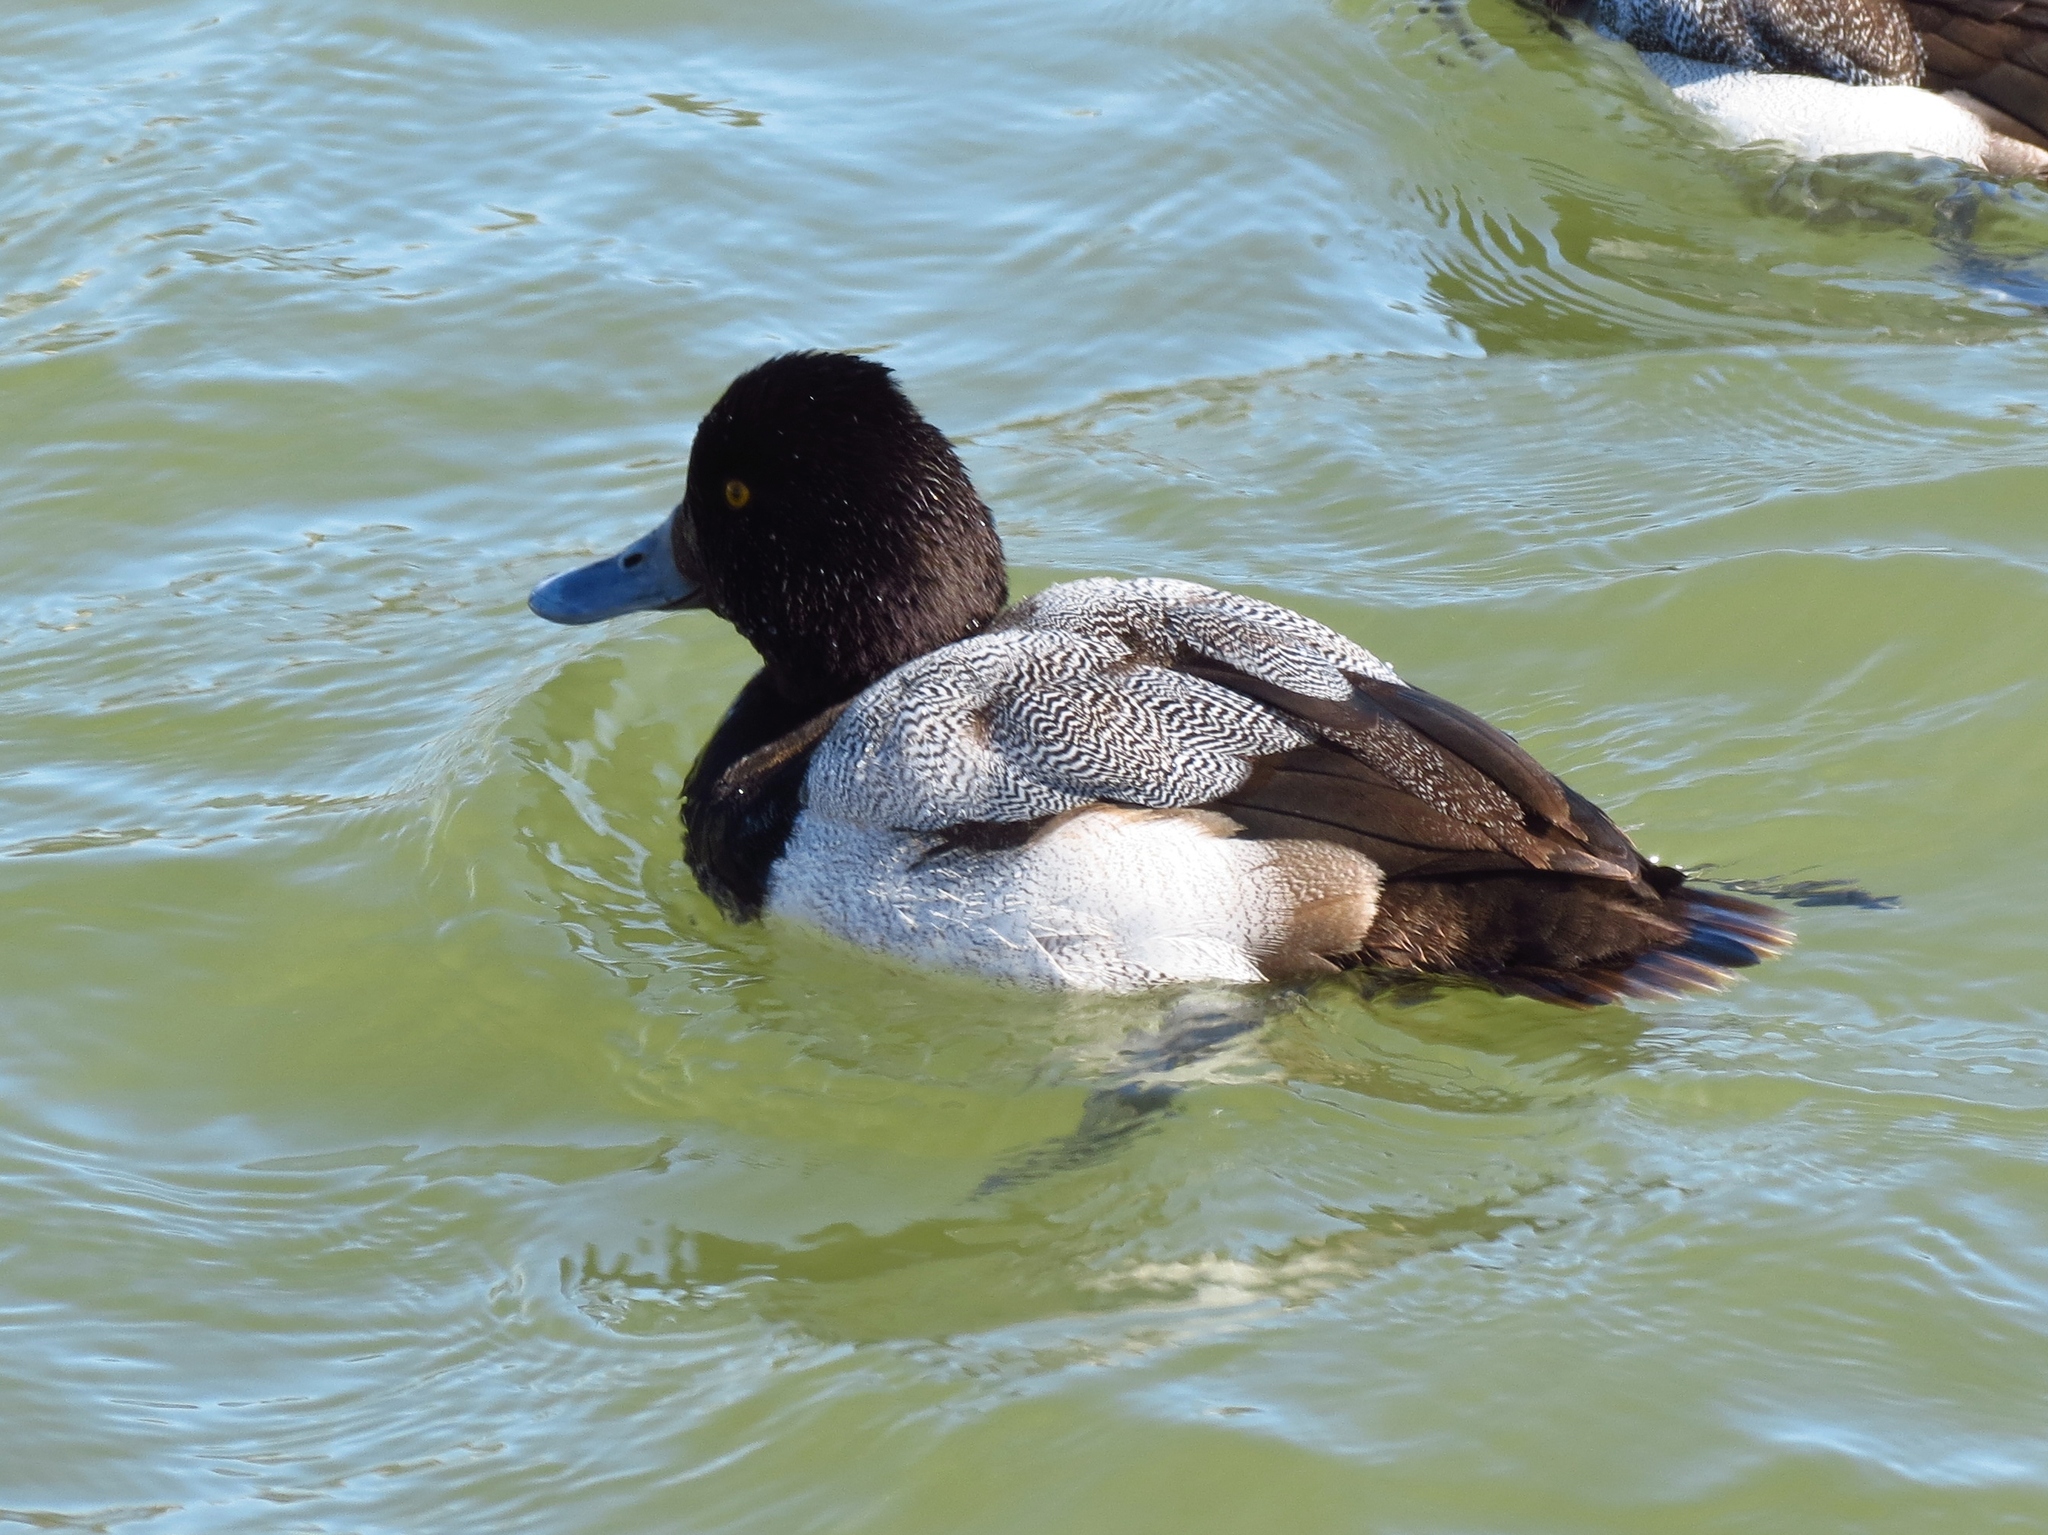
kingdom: Animalia
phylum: Chordata
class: Aves
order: Anseriformes
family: Anatidae
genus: Aythya
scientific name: Aythya affinis
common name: Lesser scaup
